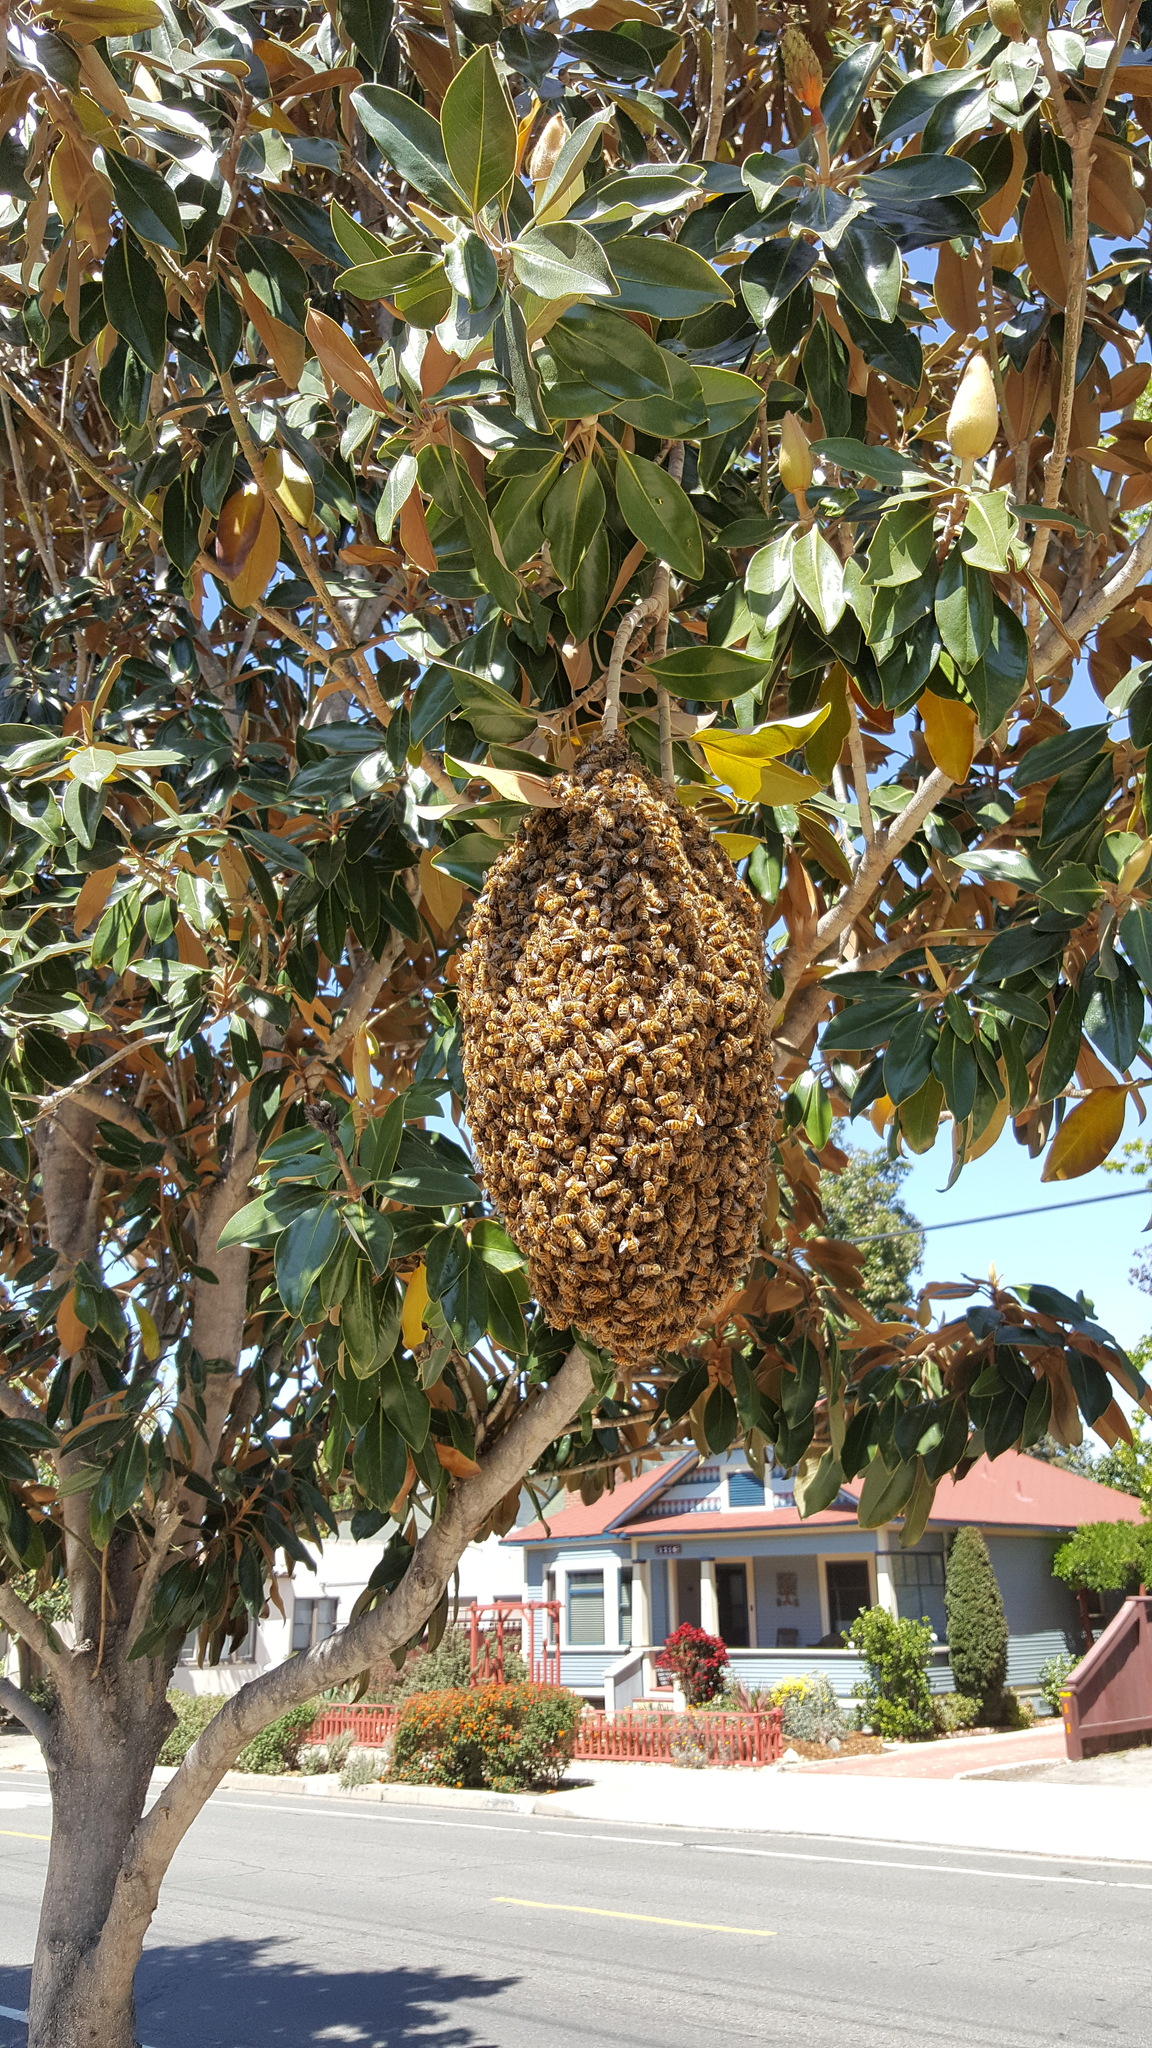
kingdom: Animalia
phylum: Arthropoda
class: Insecta
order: Hymenoptera
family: Apidae
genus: Apis
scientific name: Apis mellifera
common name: Honey bee
